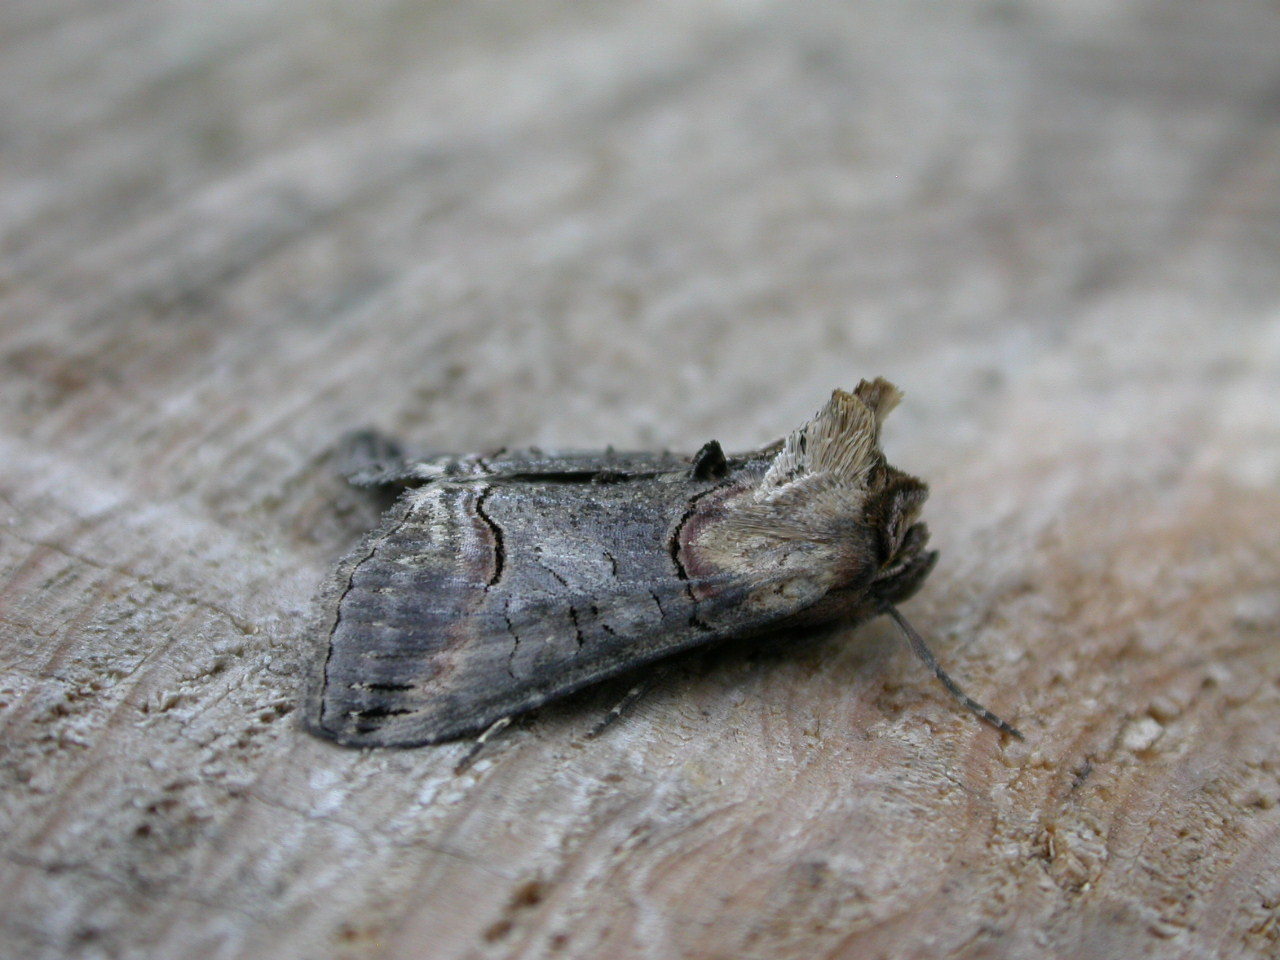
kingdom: Animalia
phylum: Arthropoda
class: Insecta
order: Lepidoptera
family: Noctuidae
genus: Abrostola
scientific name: Abrostola triplasia
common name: Dark spectacle
